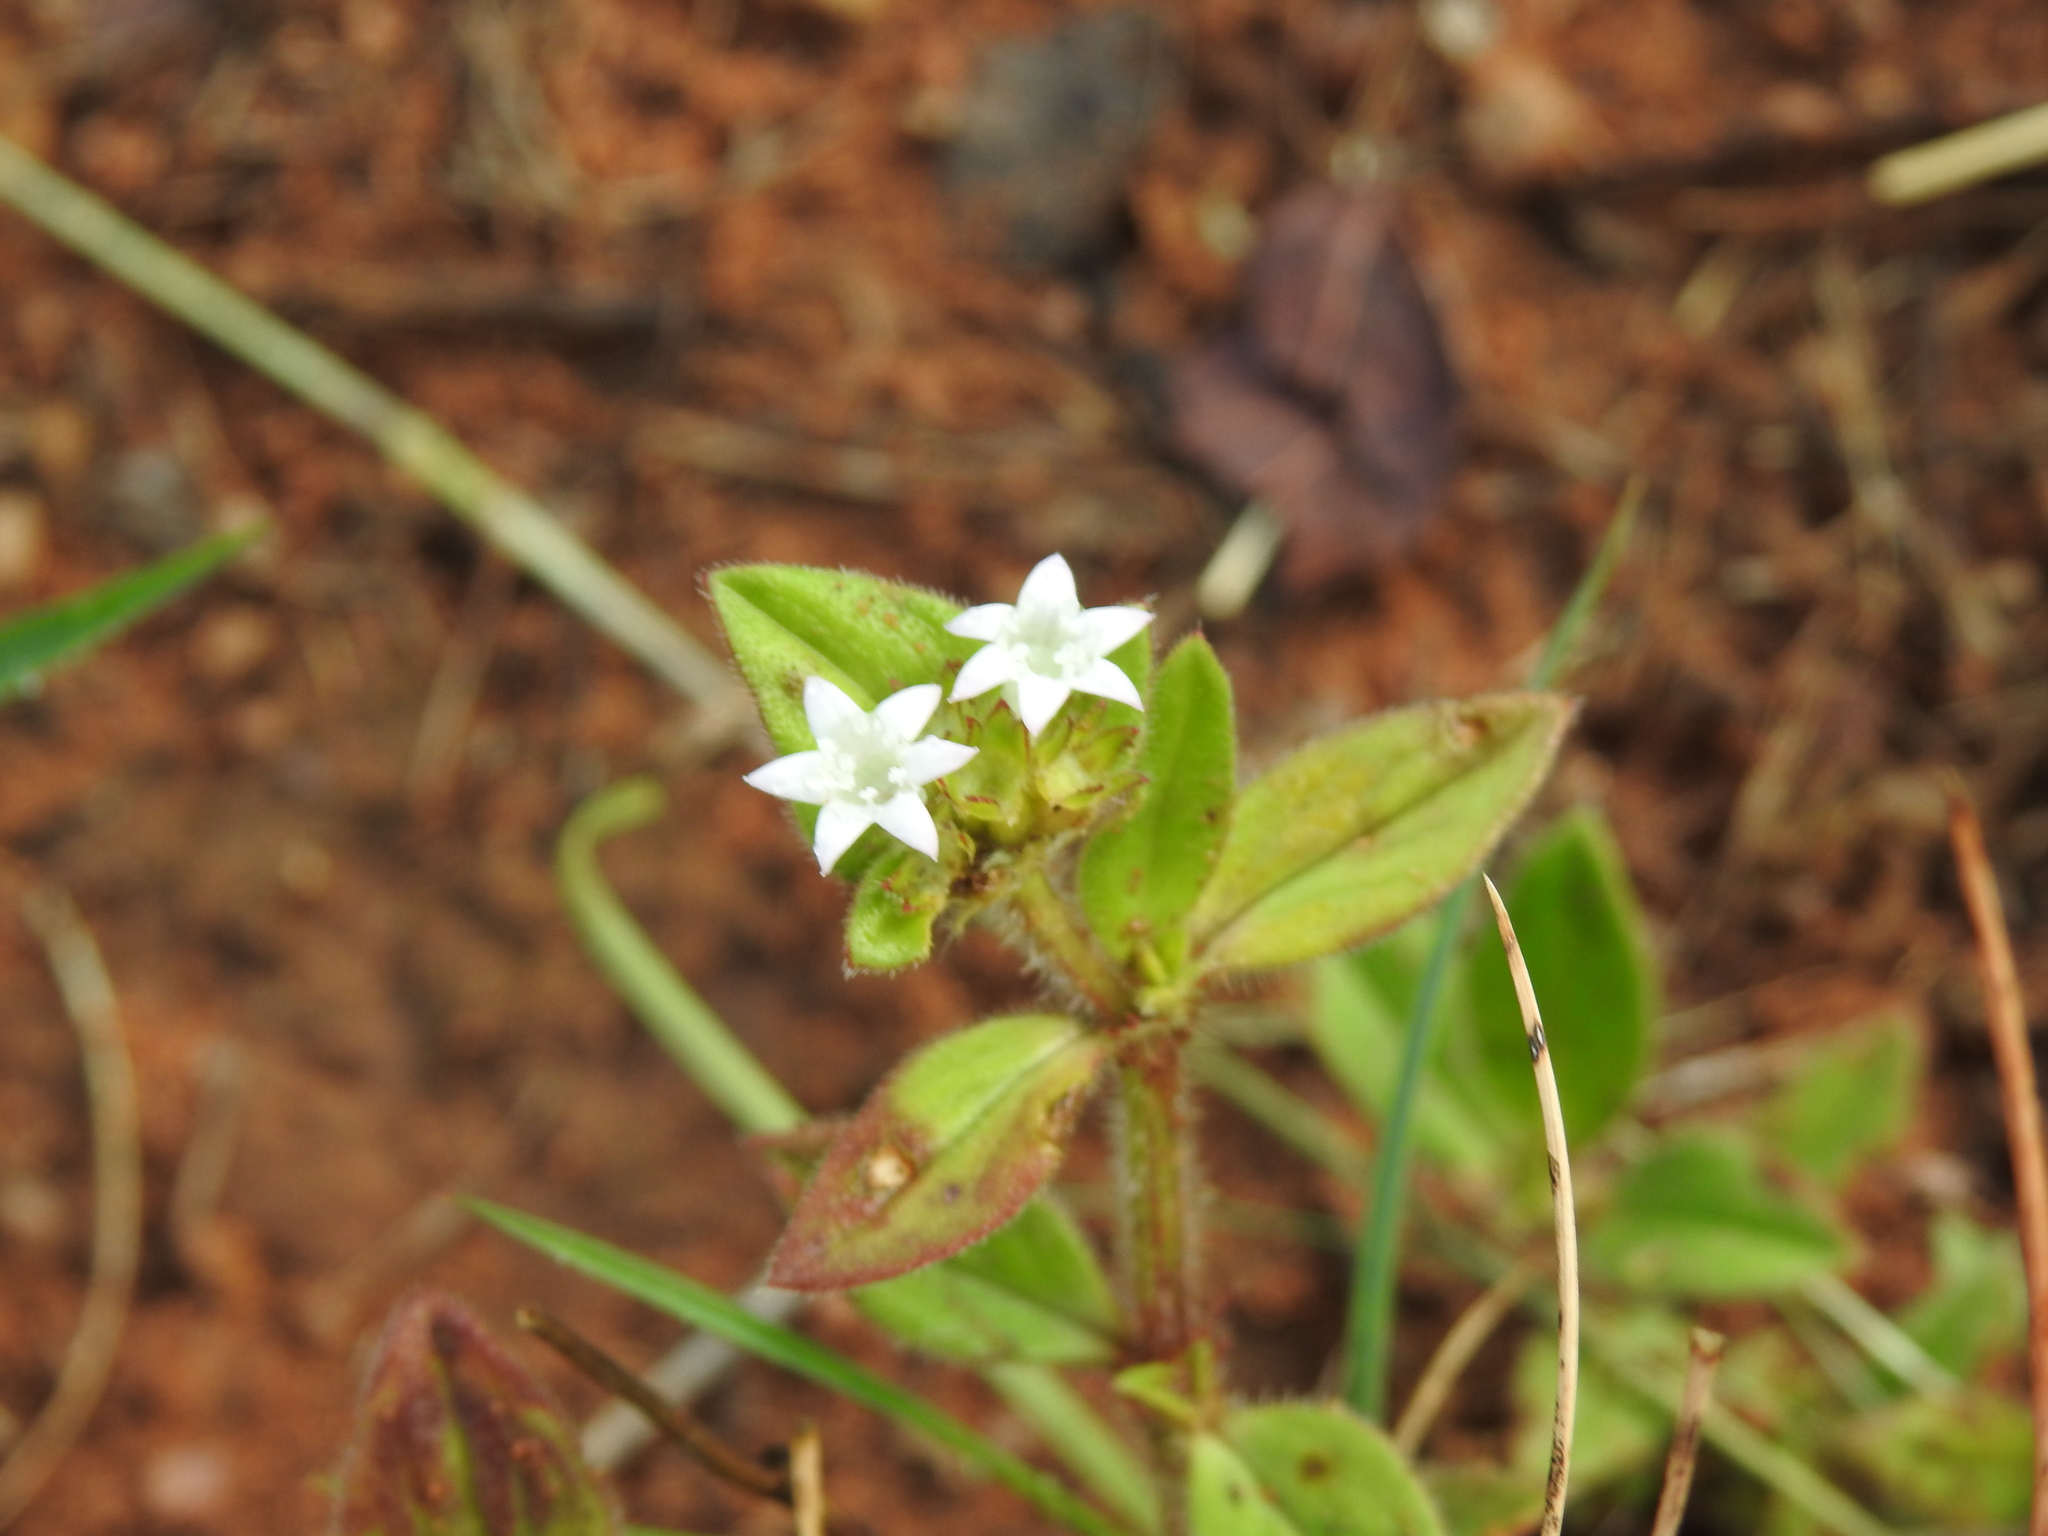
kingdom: Plantae
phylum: Tracheophyta
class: Magnoliopsida
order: Gentianales
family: Rubiaceae
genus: Richardia
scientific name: Richardia brasiliensis
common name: Tropical mexican clover
